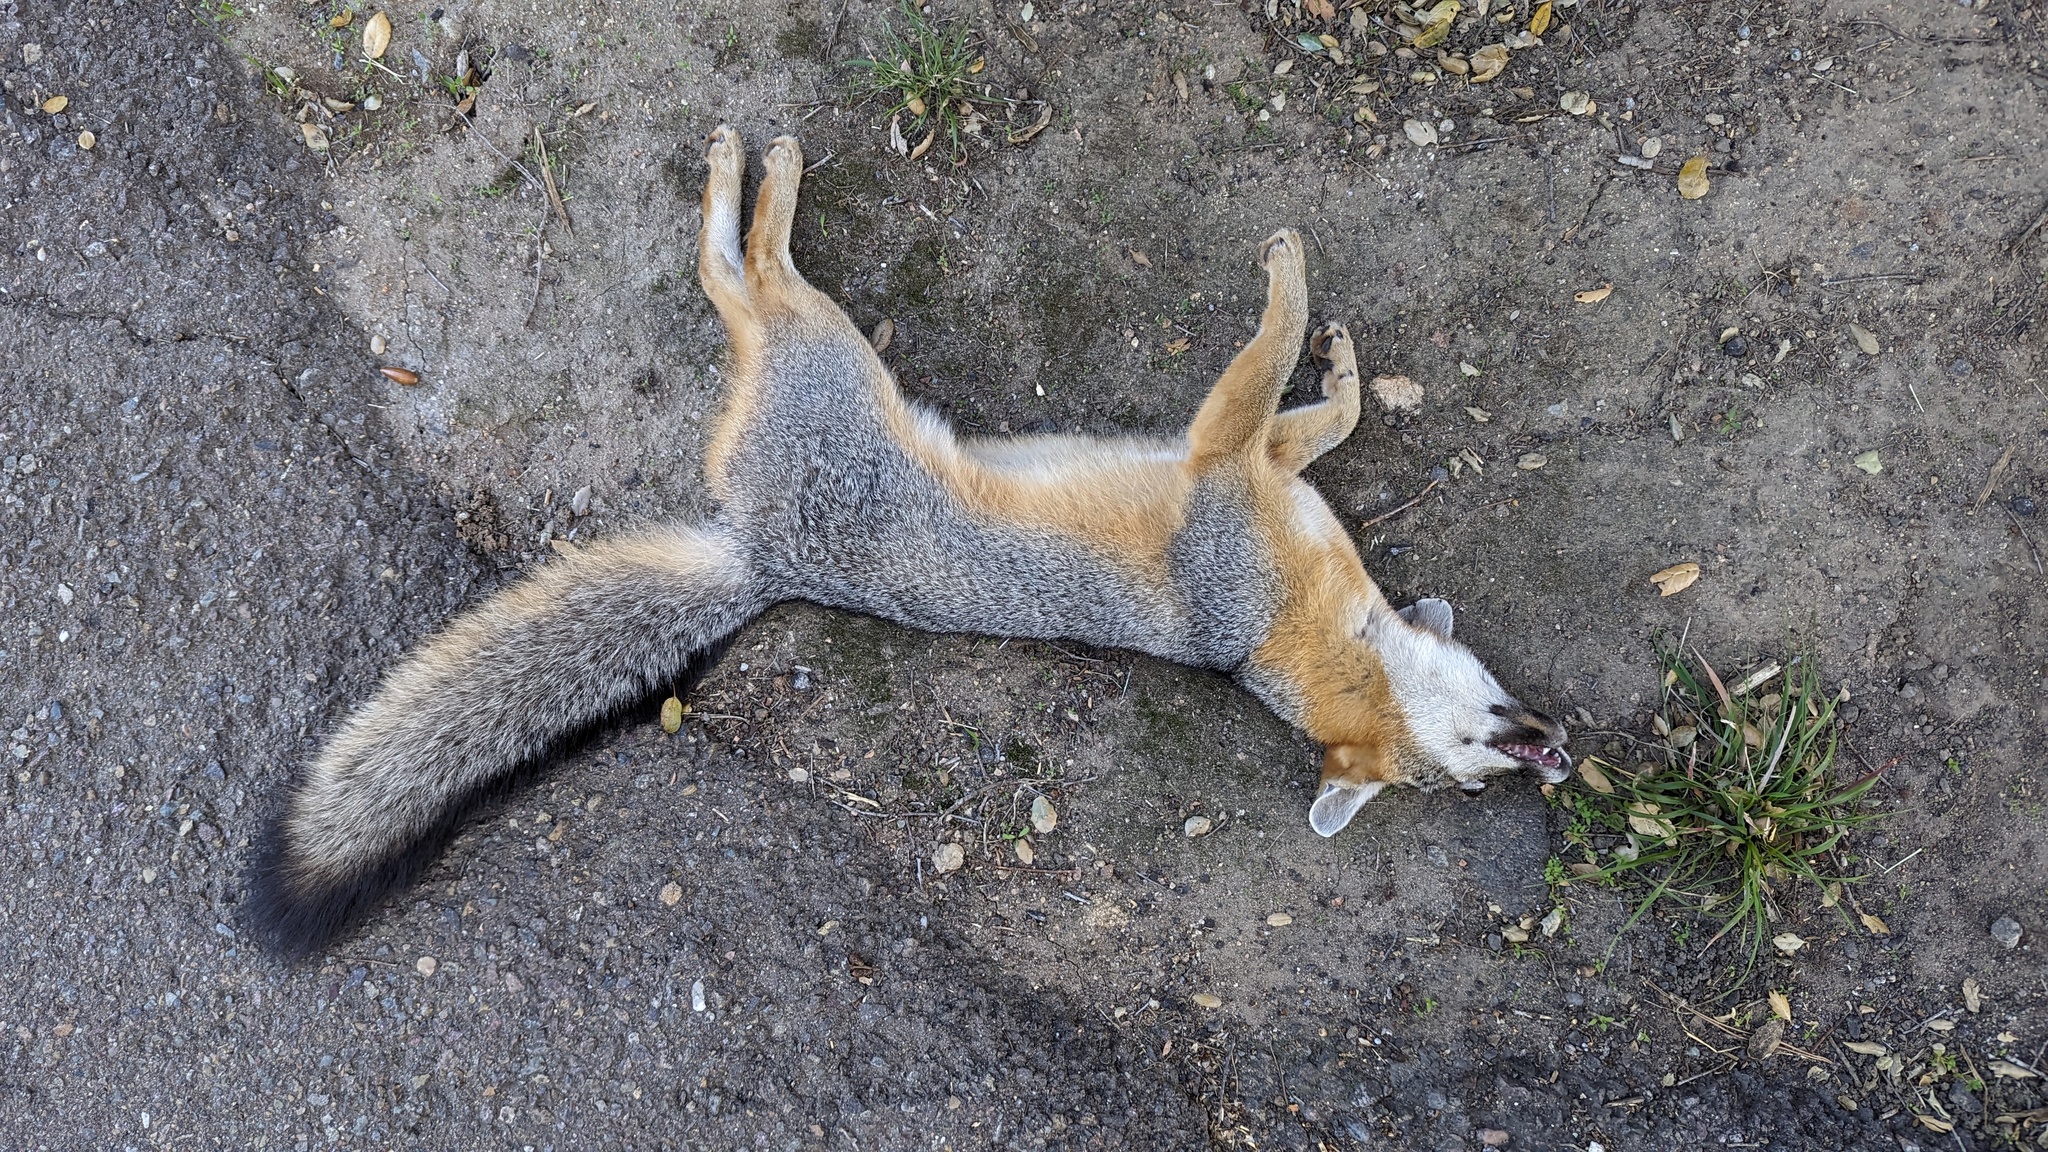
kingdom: Animalia
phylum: Chordata
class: Mammalia
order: Carnivora
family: Canidae
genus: Urocyon
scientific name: Urocyon cinereoargenteus
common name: Gray fox
